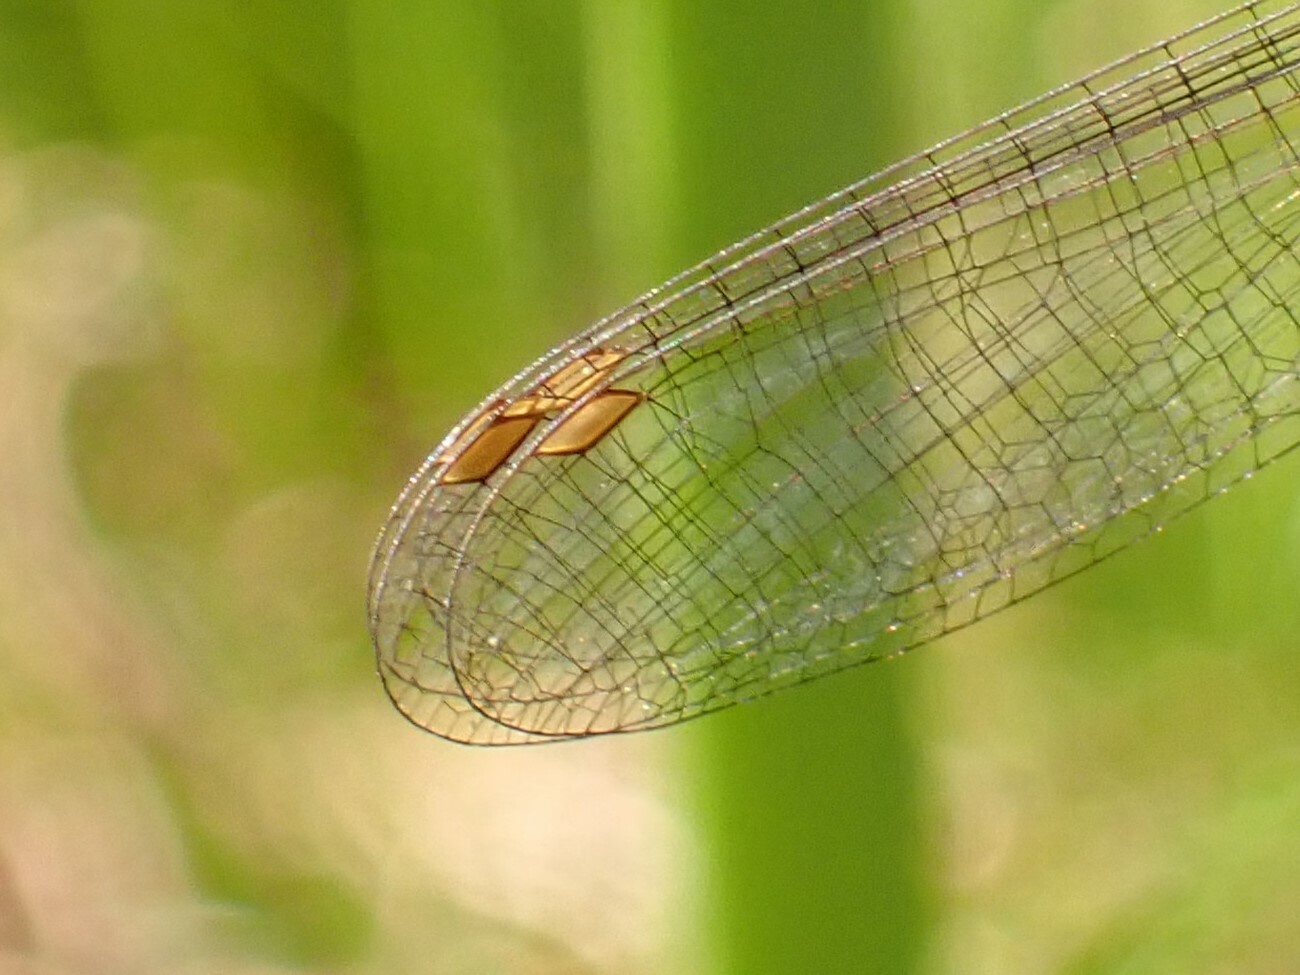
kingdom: Animalia
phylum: Arthropoda
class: Insecta
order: Odonata
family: Coenagrionidae
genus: Ceriagrion
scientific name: Ceriagrion glabrum
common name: Common pond damsel
